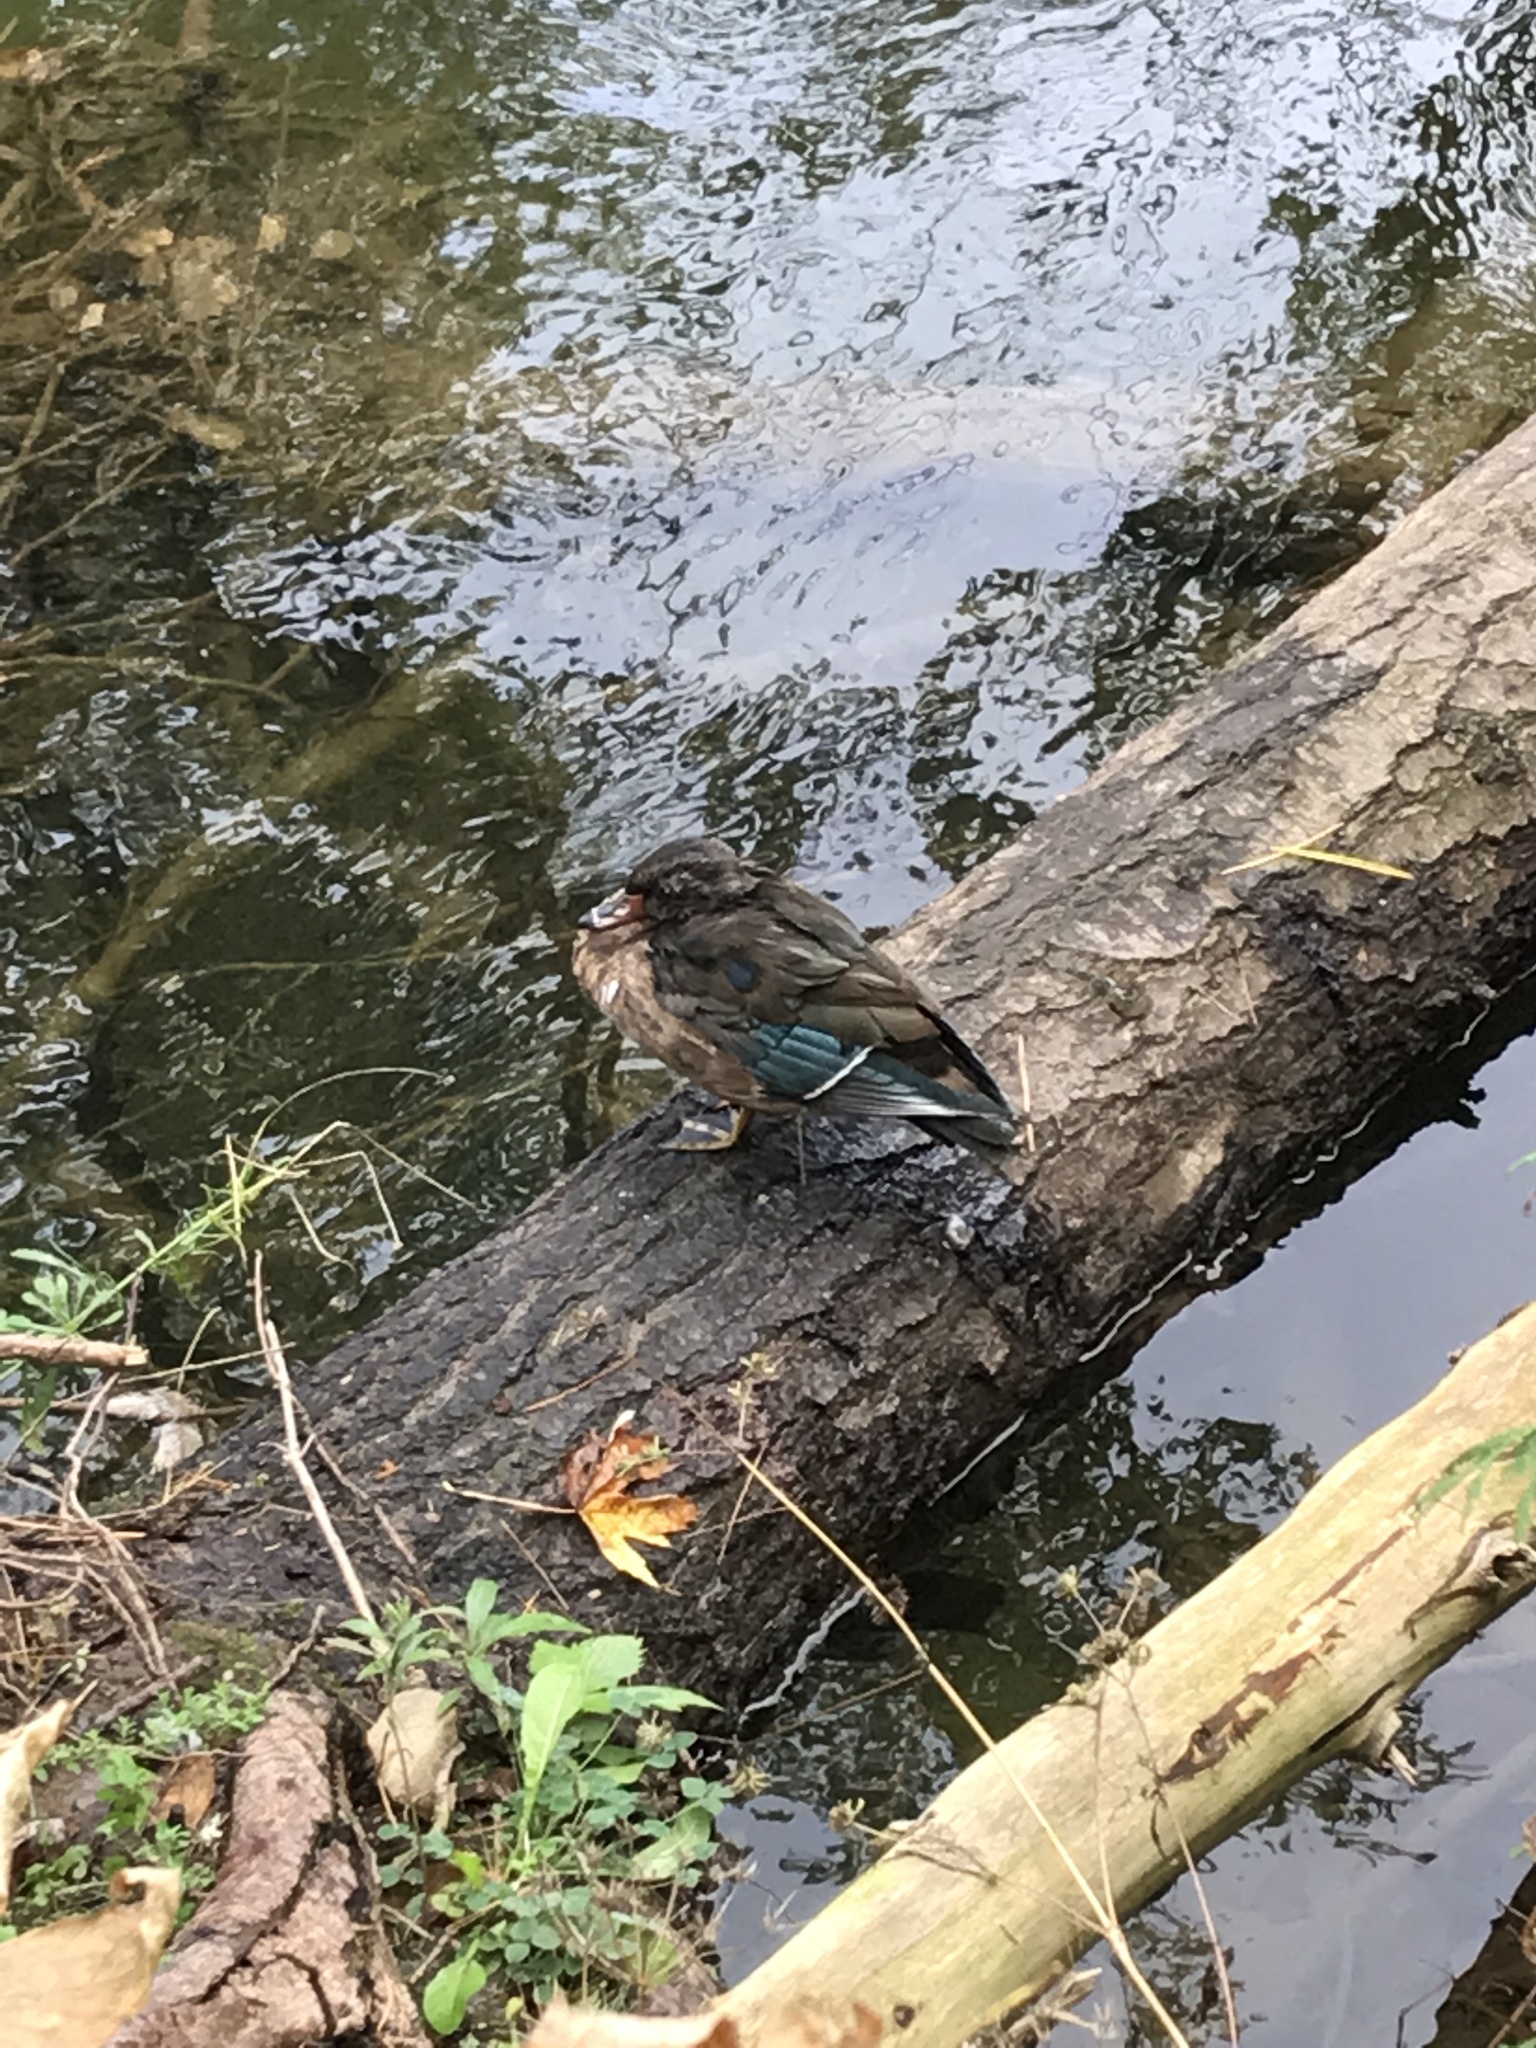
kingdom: Animalia
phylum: Chordata
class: Aves
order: Anseriformes
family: Anatidae
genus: Aix
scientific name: Aix sponsa
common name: Wood duck
